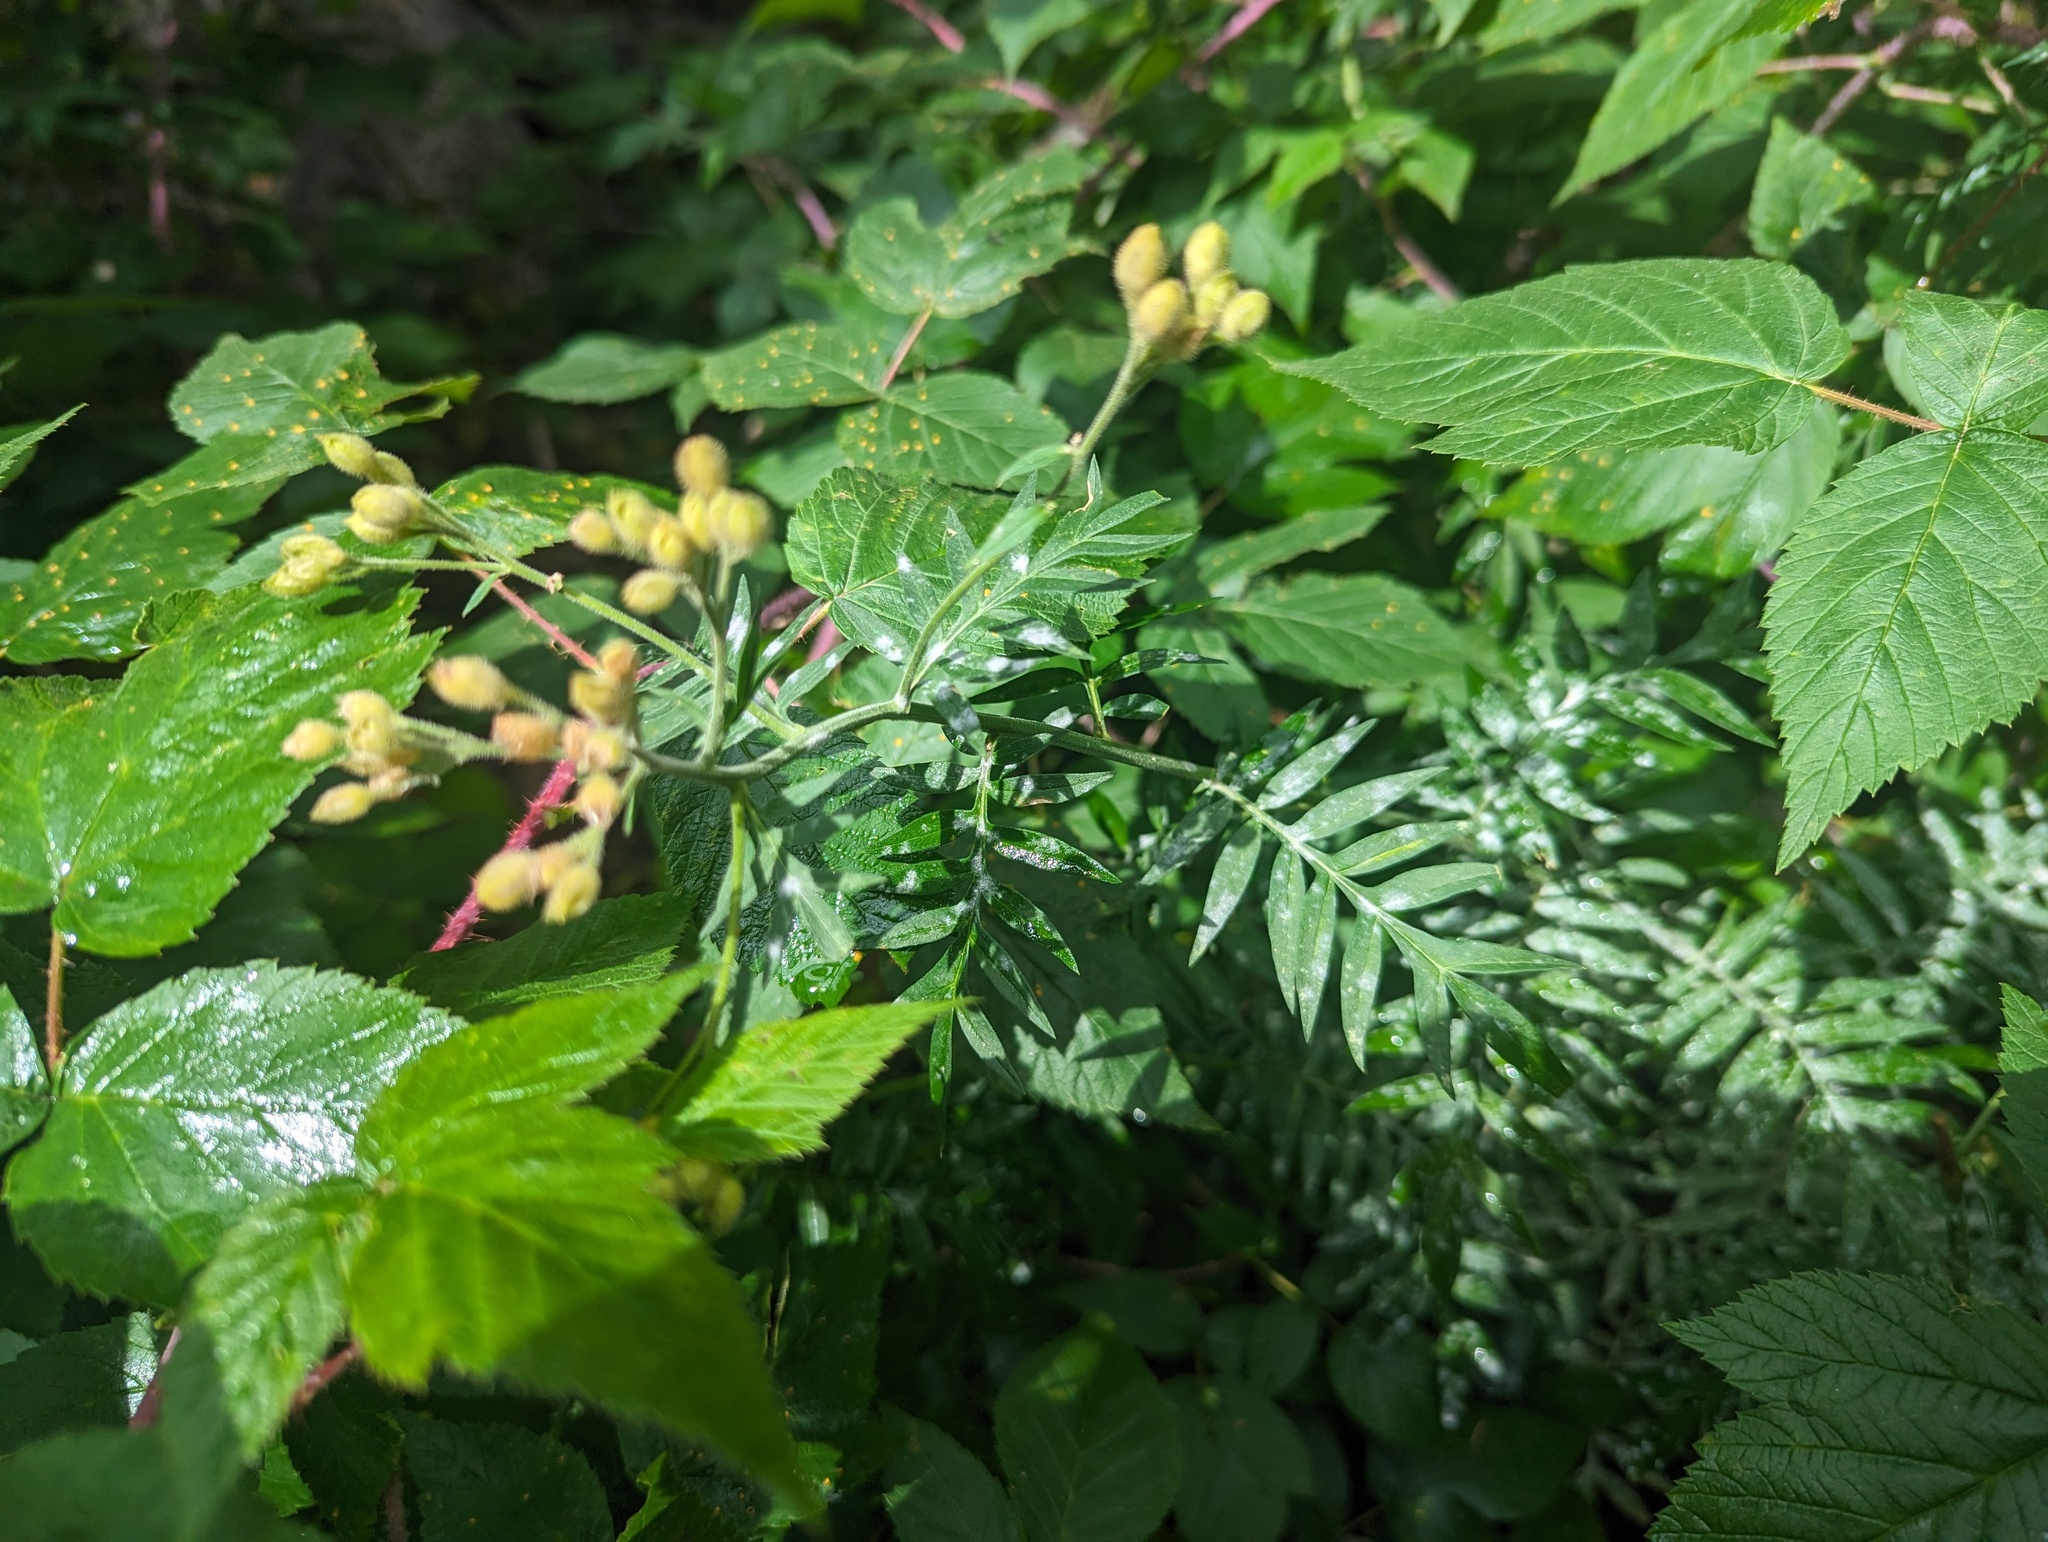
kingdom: Plantae
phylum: Tracheophyta
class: Magnoliopsida
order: Ericales
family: Polemoniaceae
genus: Polemonium
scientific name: Polemonium foliosissimum
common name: Leafy jacob's-ladder
